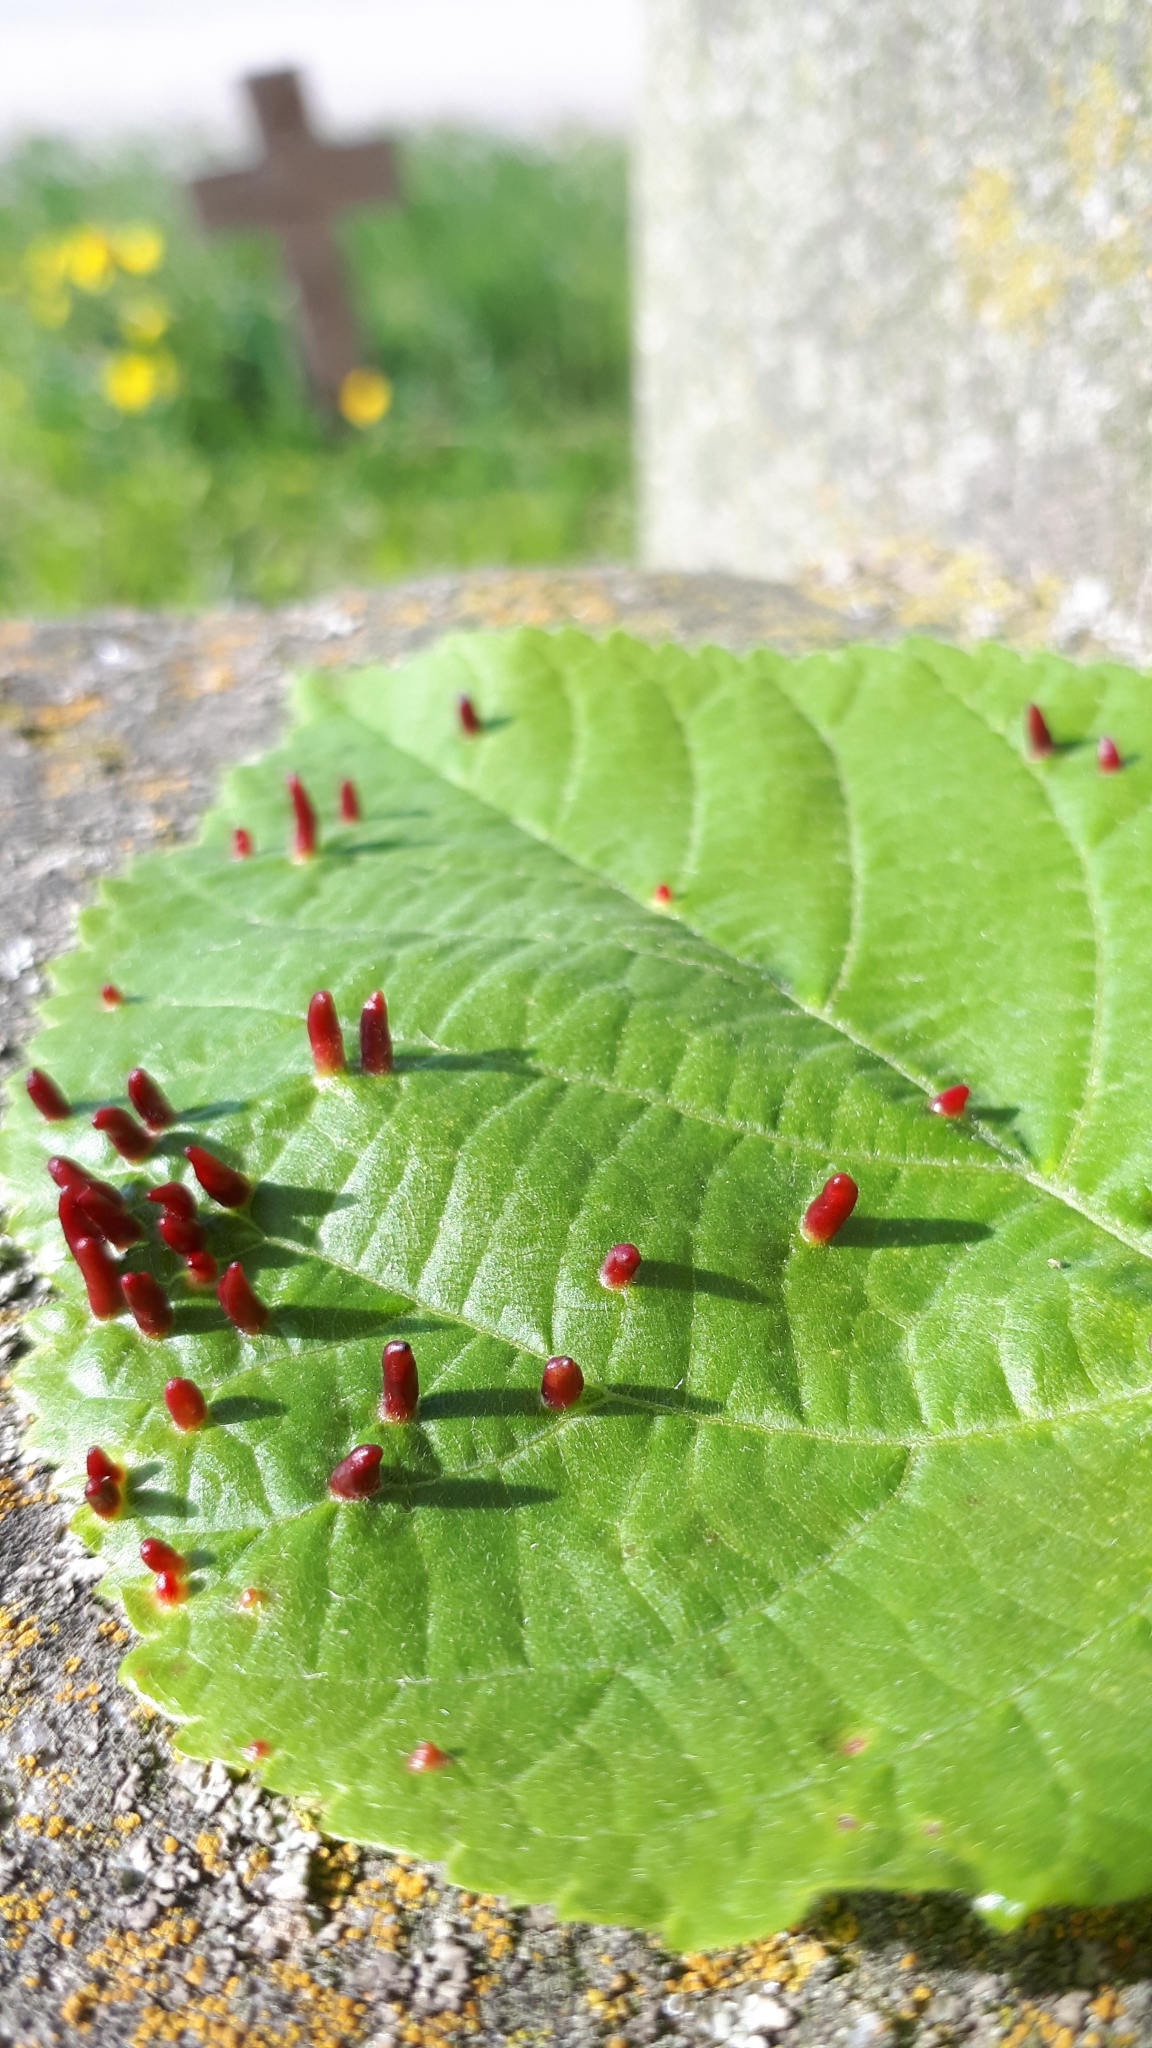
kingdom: Animalia
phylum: Arthropoda
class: Arachnida
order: Trombidiformes
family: Eriophyidae
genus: Eriophyes
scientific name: Eriophyes tiliae
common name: Red nail gall mite
